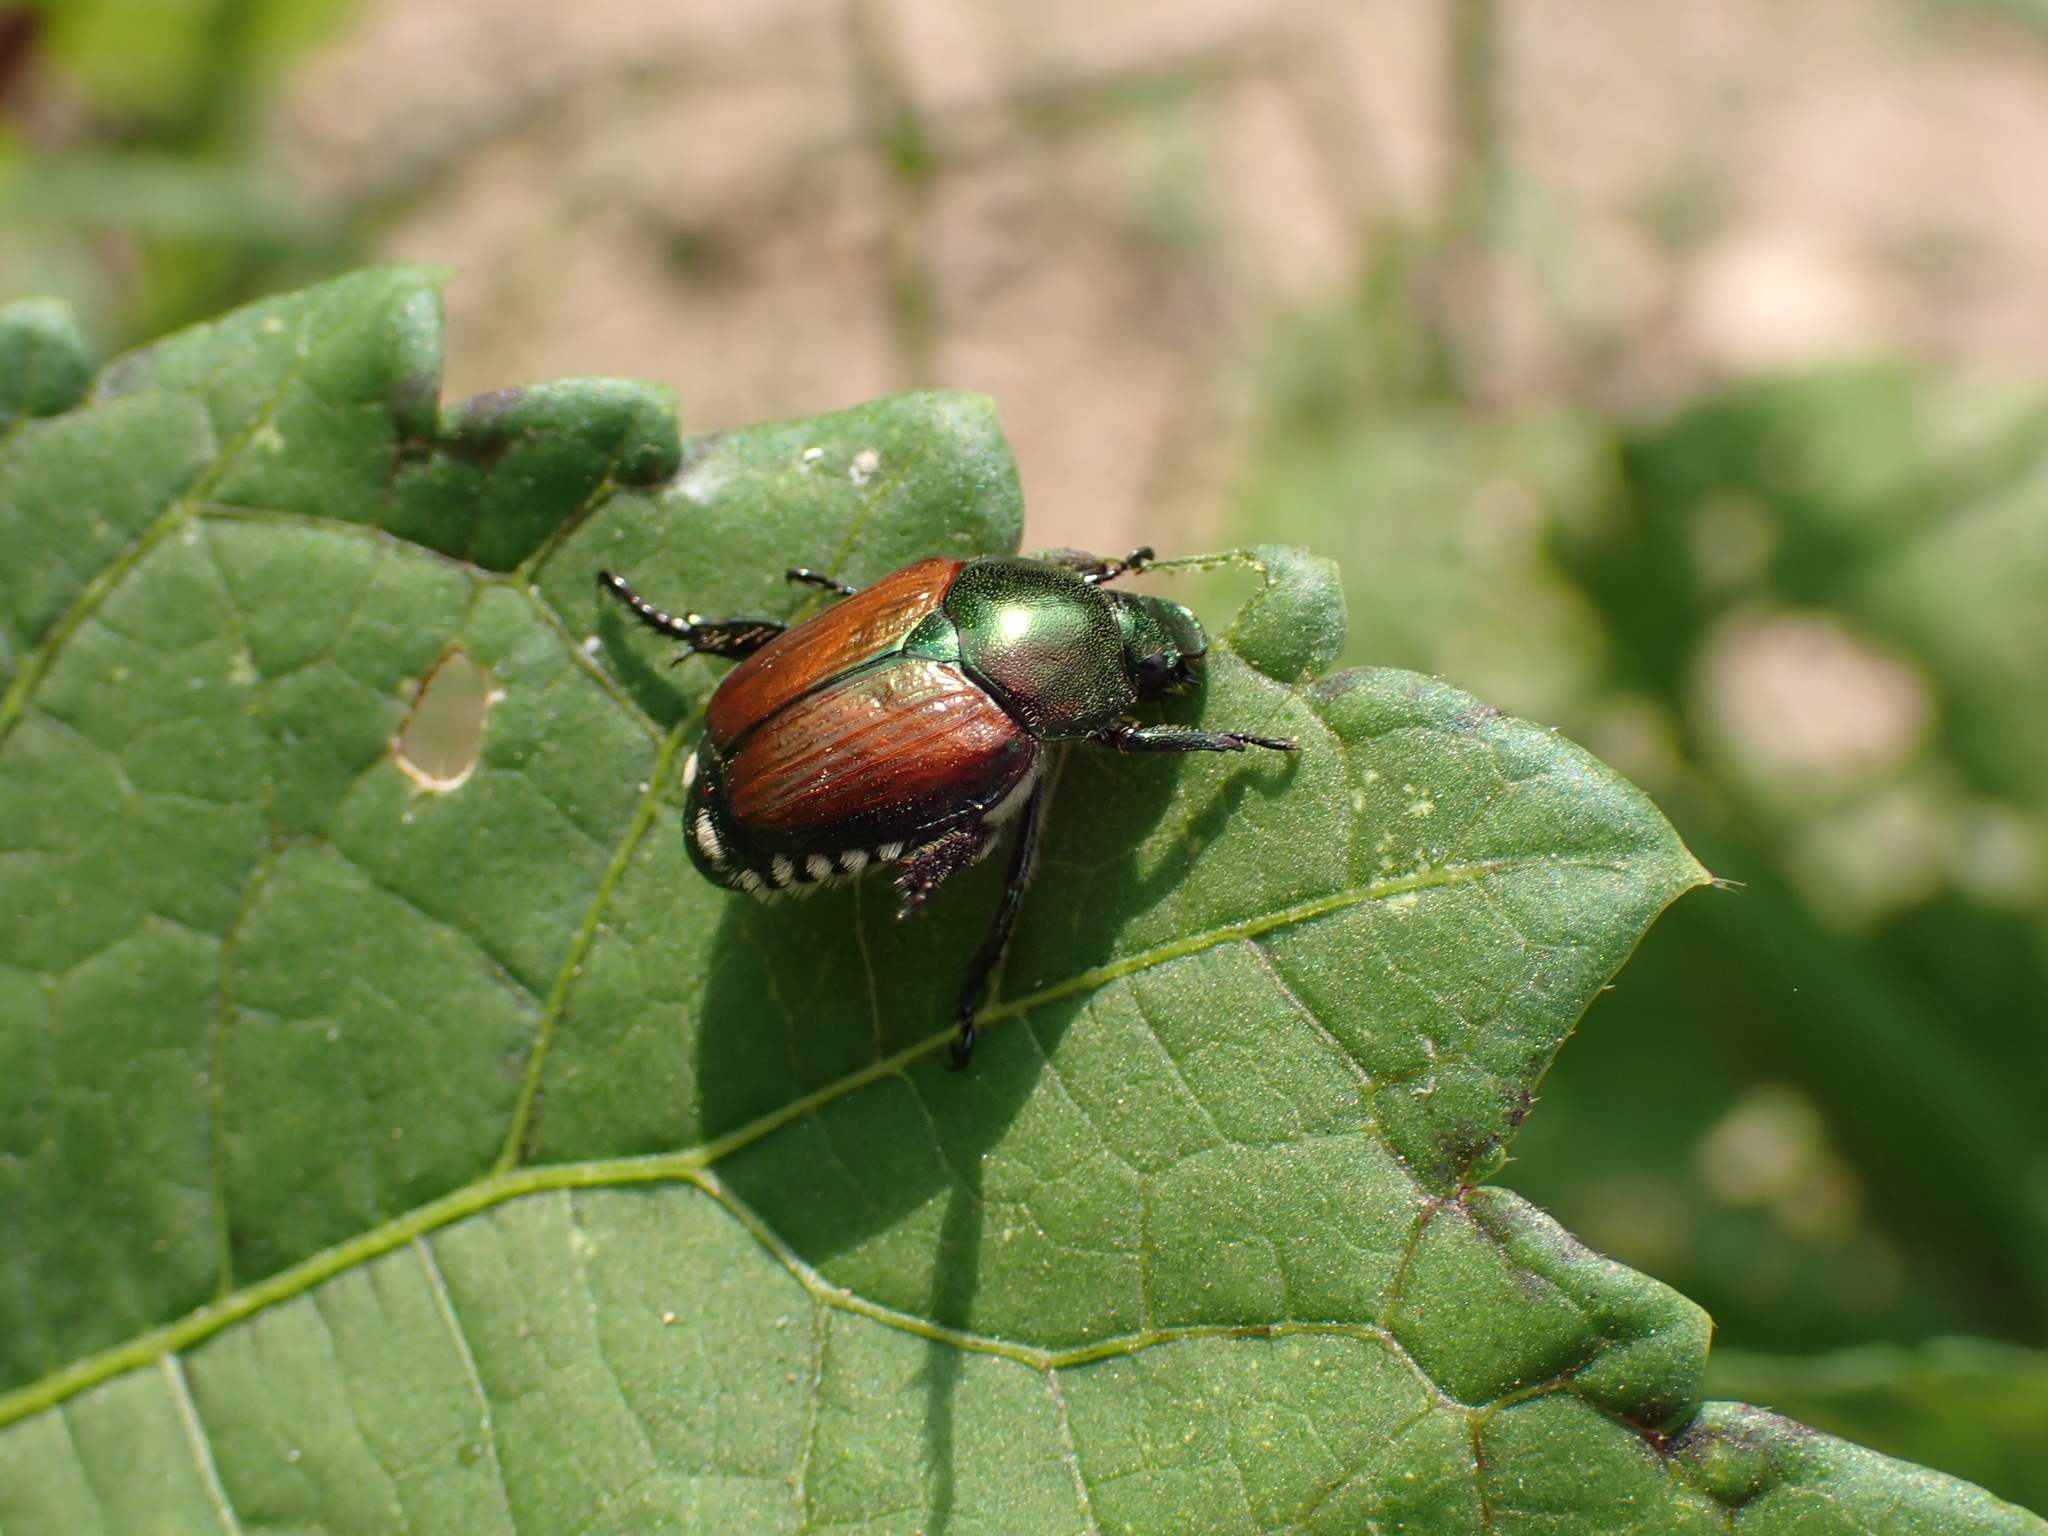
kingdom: Animalia
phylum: Arthropoda
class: Insecta
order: Coleoptera
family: Scarabaeidae
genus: Popillia
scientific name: Popillia japonica
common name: Japanese beetle
